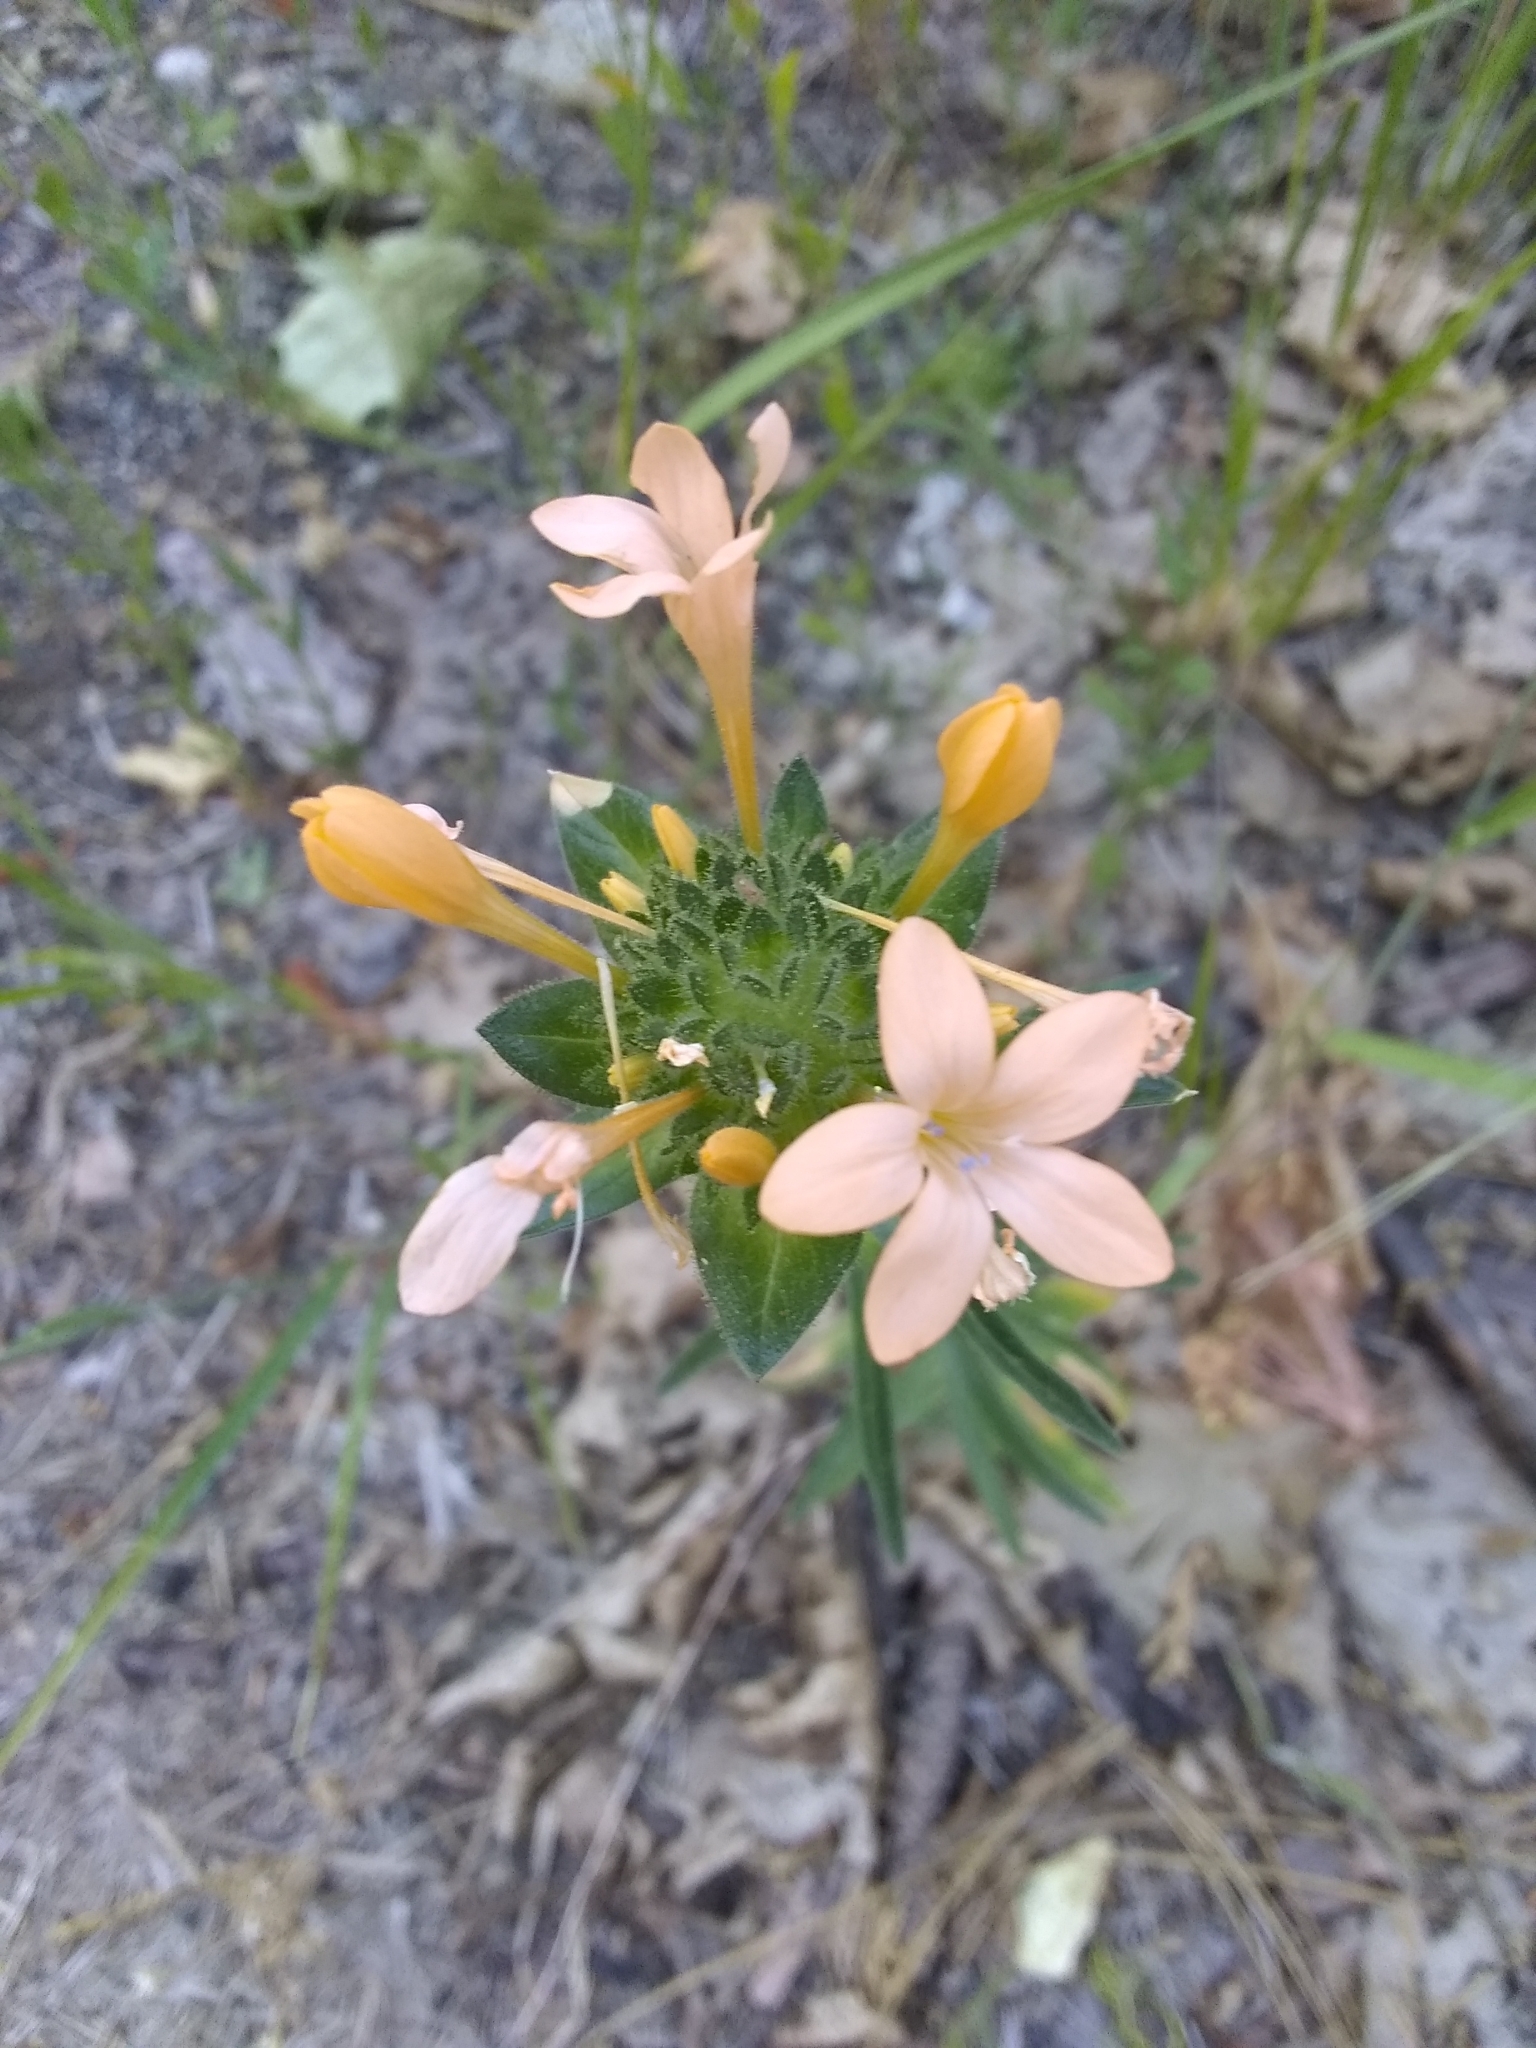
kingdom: Plantae
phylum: Tracheophyta
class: Magnoliopsida
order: Ericales
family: Polemoniaceae
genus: Collomia
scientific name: Collomia grandiflora
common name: California strawflower
